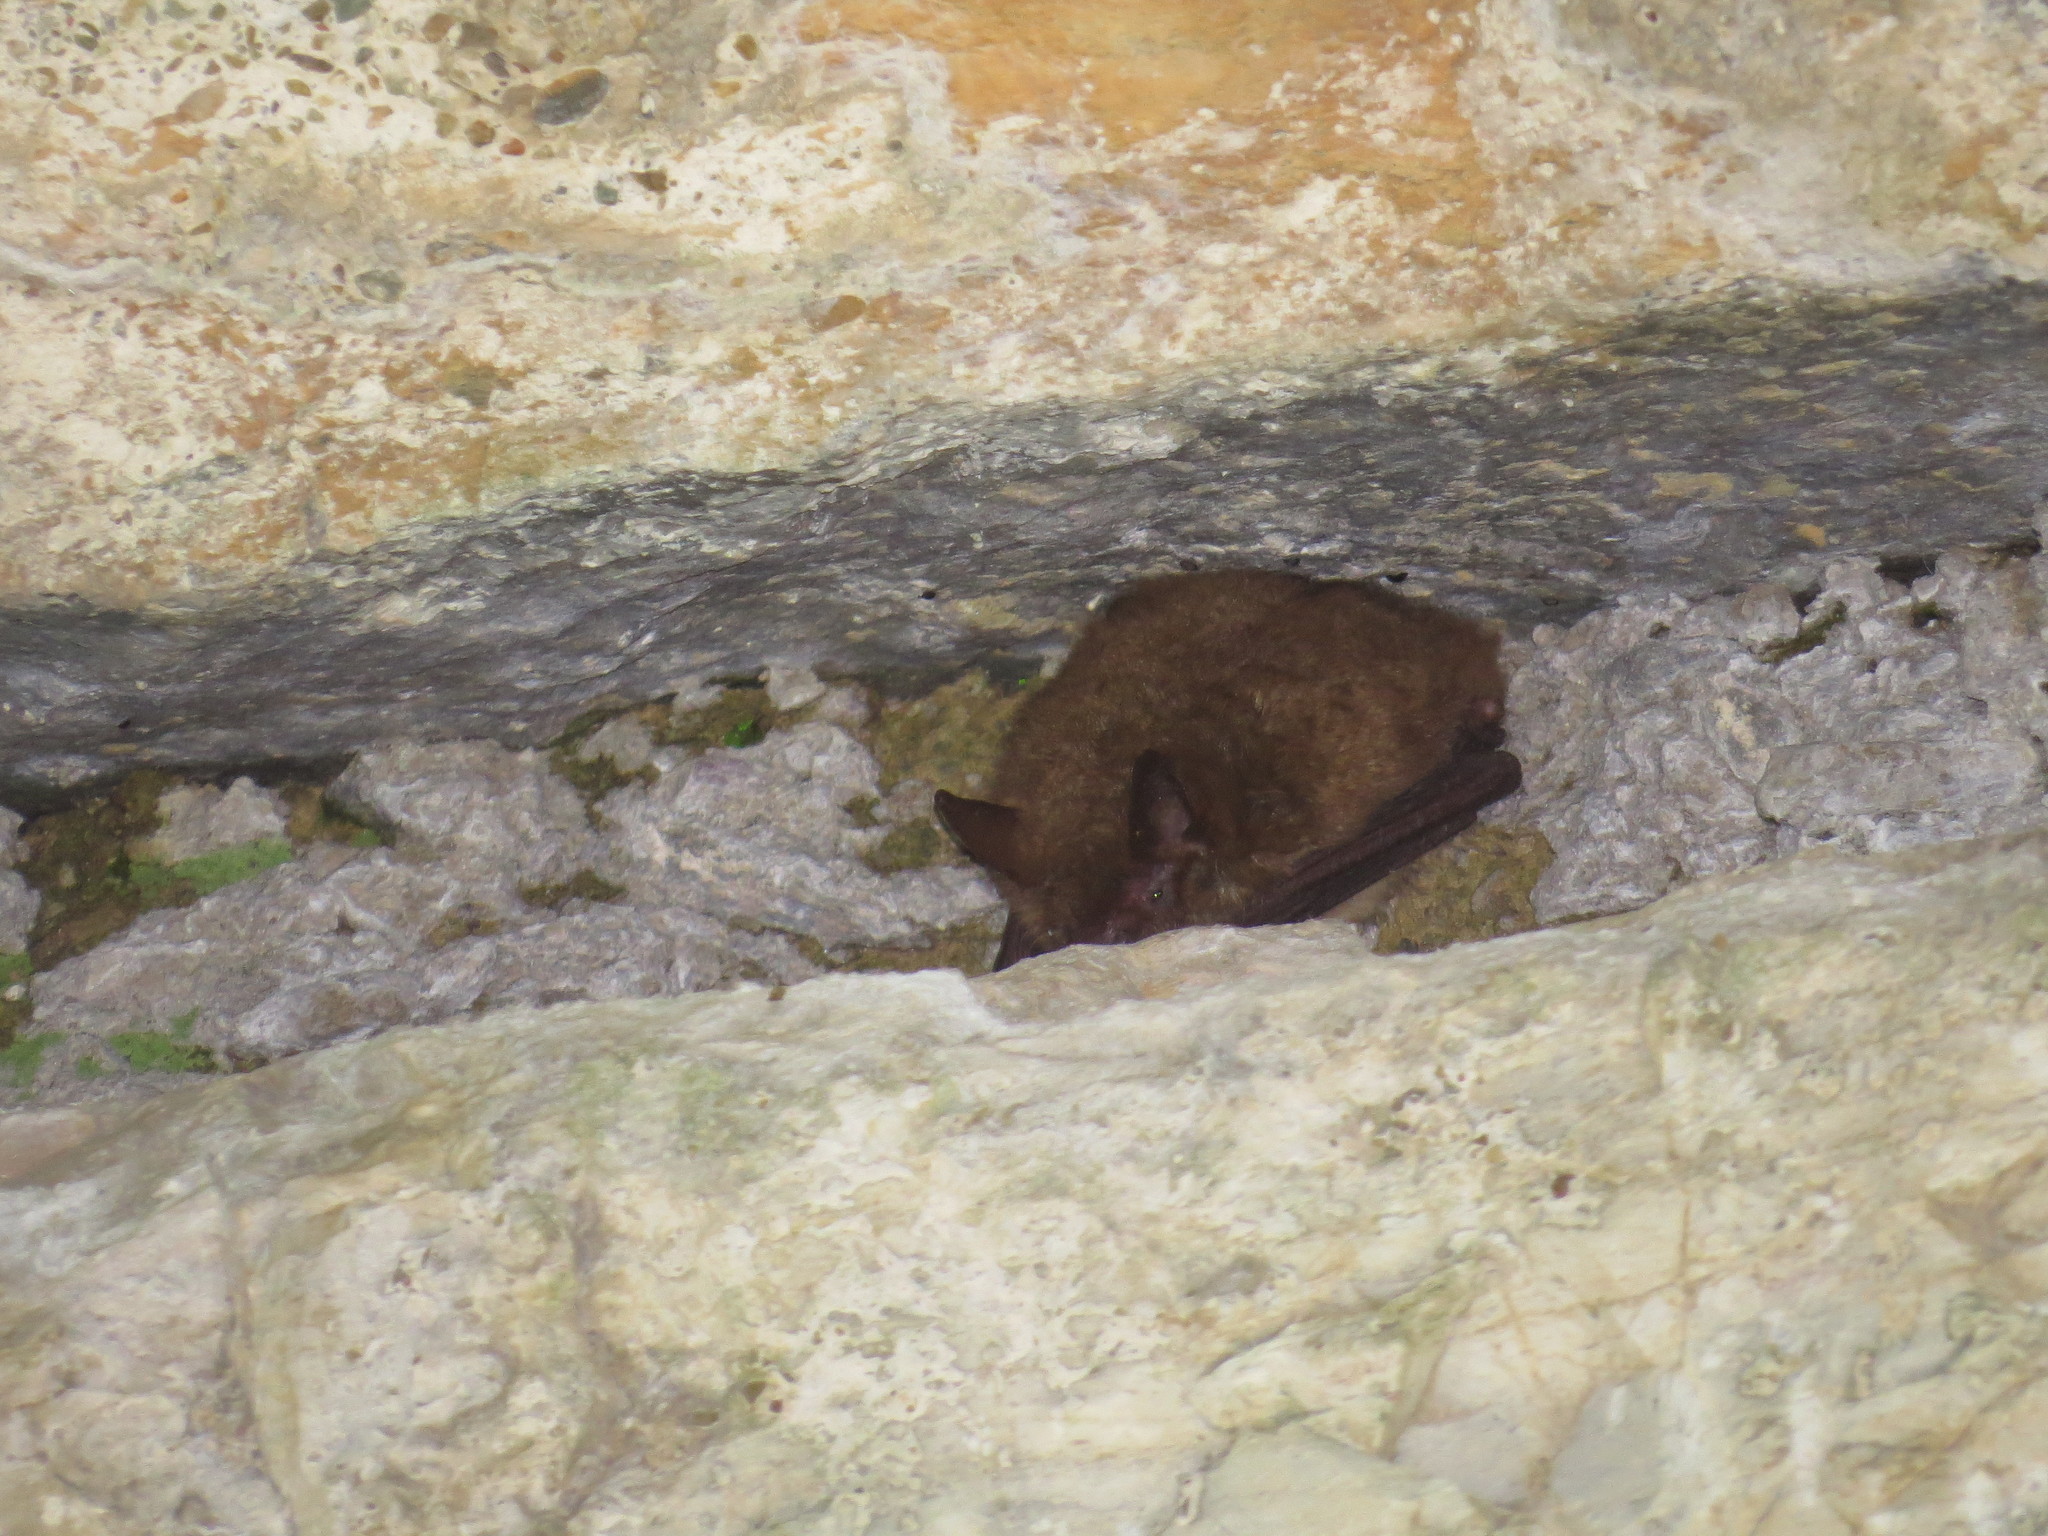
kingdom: Animalia
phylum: Chordata
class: Mammalia
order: Chiroptera
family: Vespertilionidae
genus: Myotis
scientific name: Myotis emarginatus
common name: Geoffroy's bat
